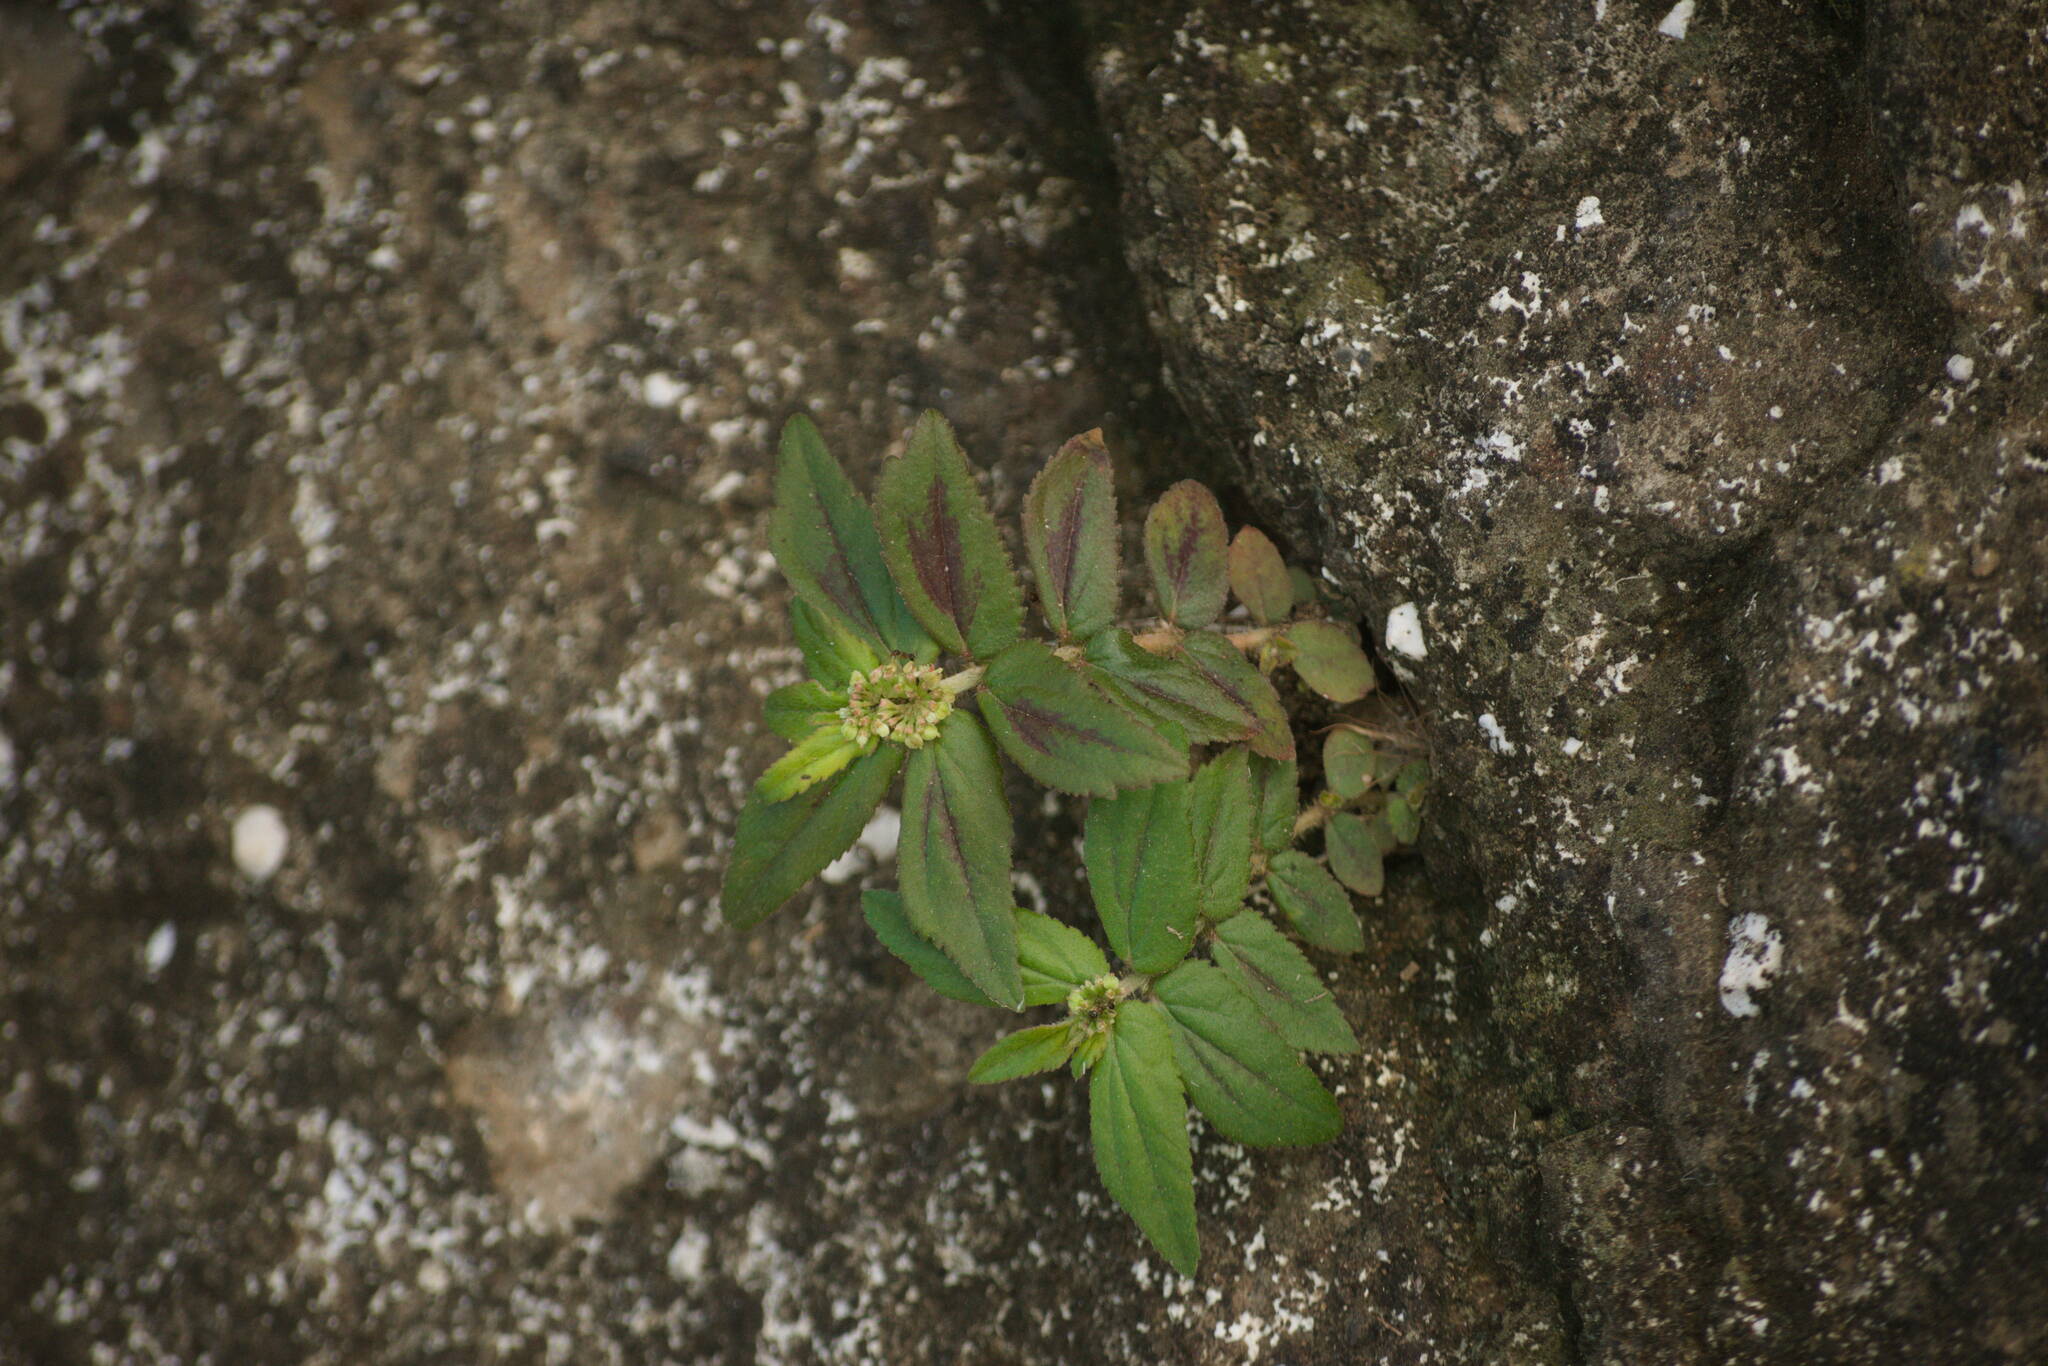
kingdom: Plantae
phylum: Tracheophyta
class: Magnoliopsida
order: Malpighiales
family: Euphorbiaceae
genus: Euphorbia
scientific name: Euphorbia hirta
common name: Pillpod sandmat
